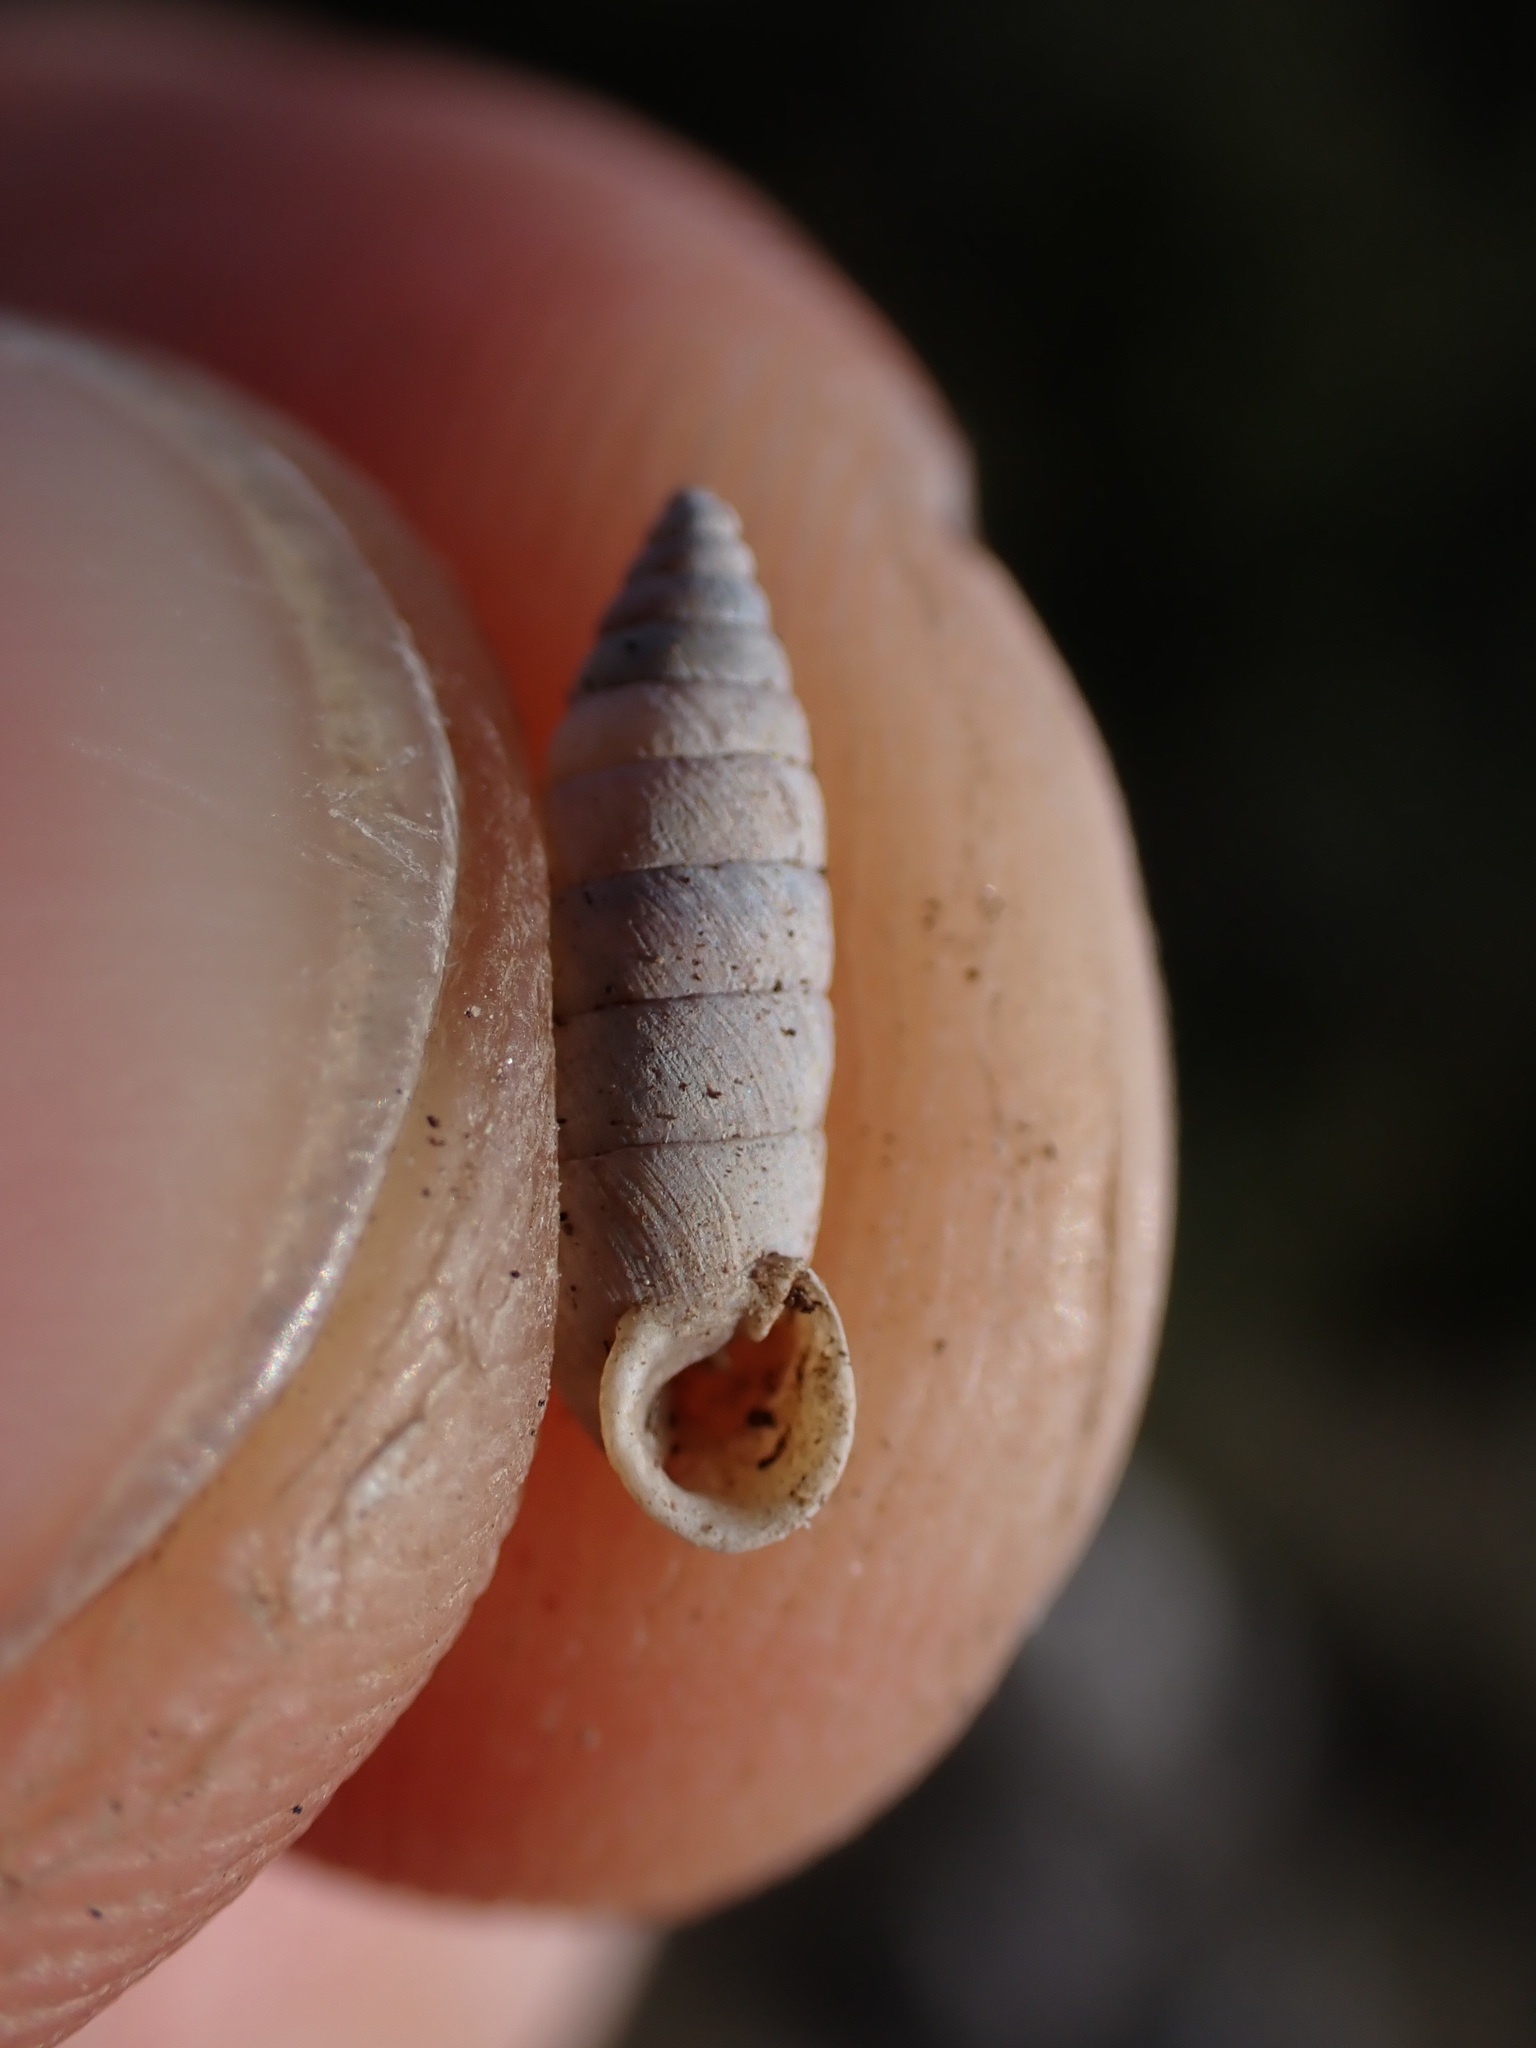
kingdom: Animalia
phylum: Mollusca
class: Gastropoda
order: Stylommatophora
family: Chondrinidae
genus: Granaria
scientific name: Granaria variabilis
